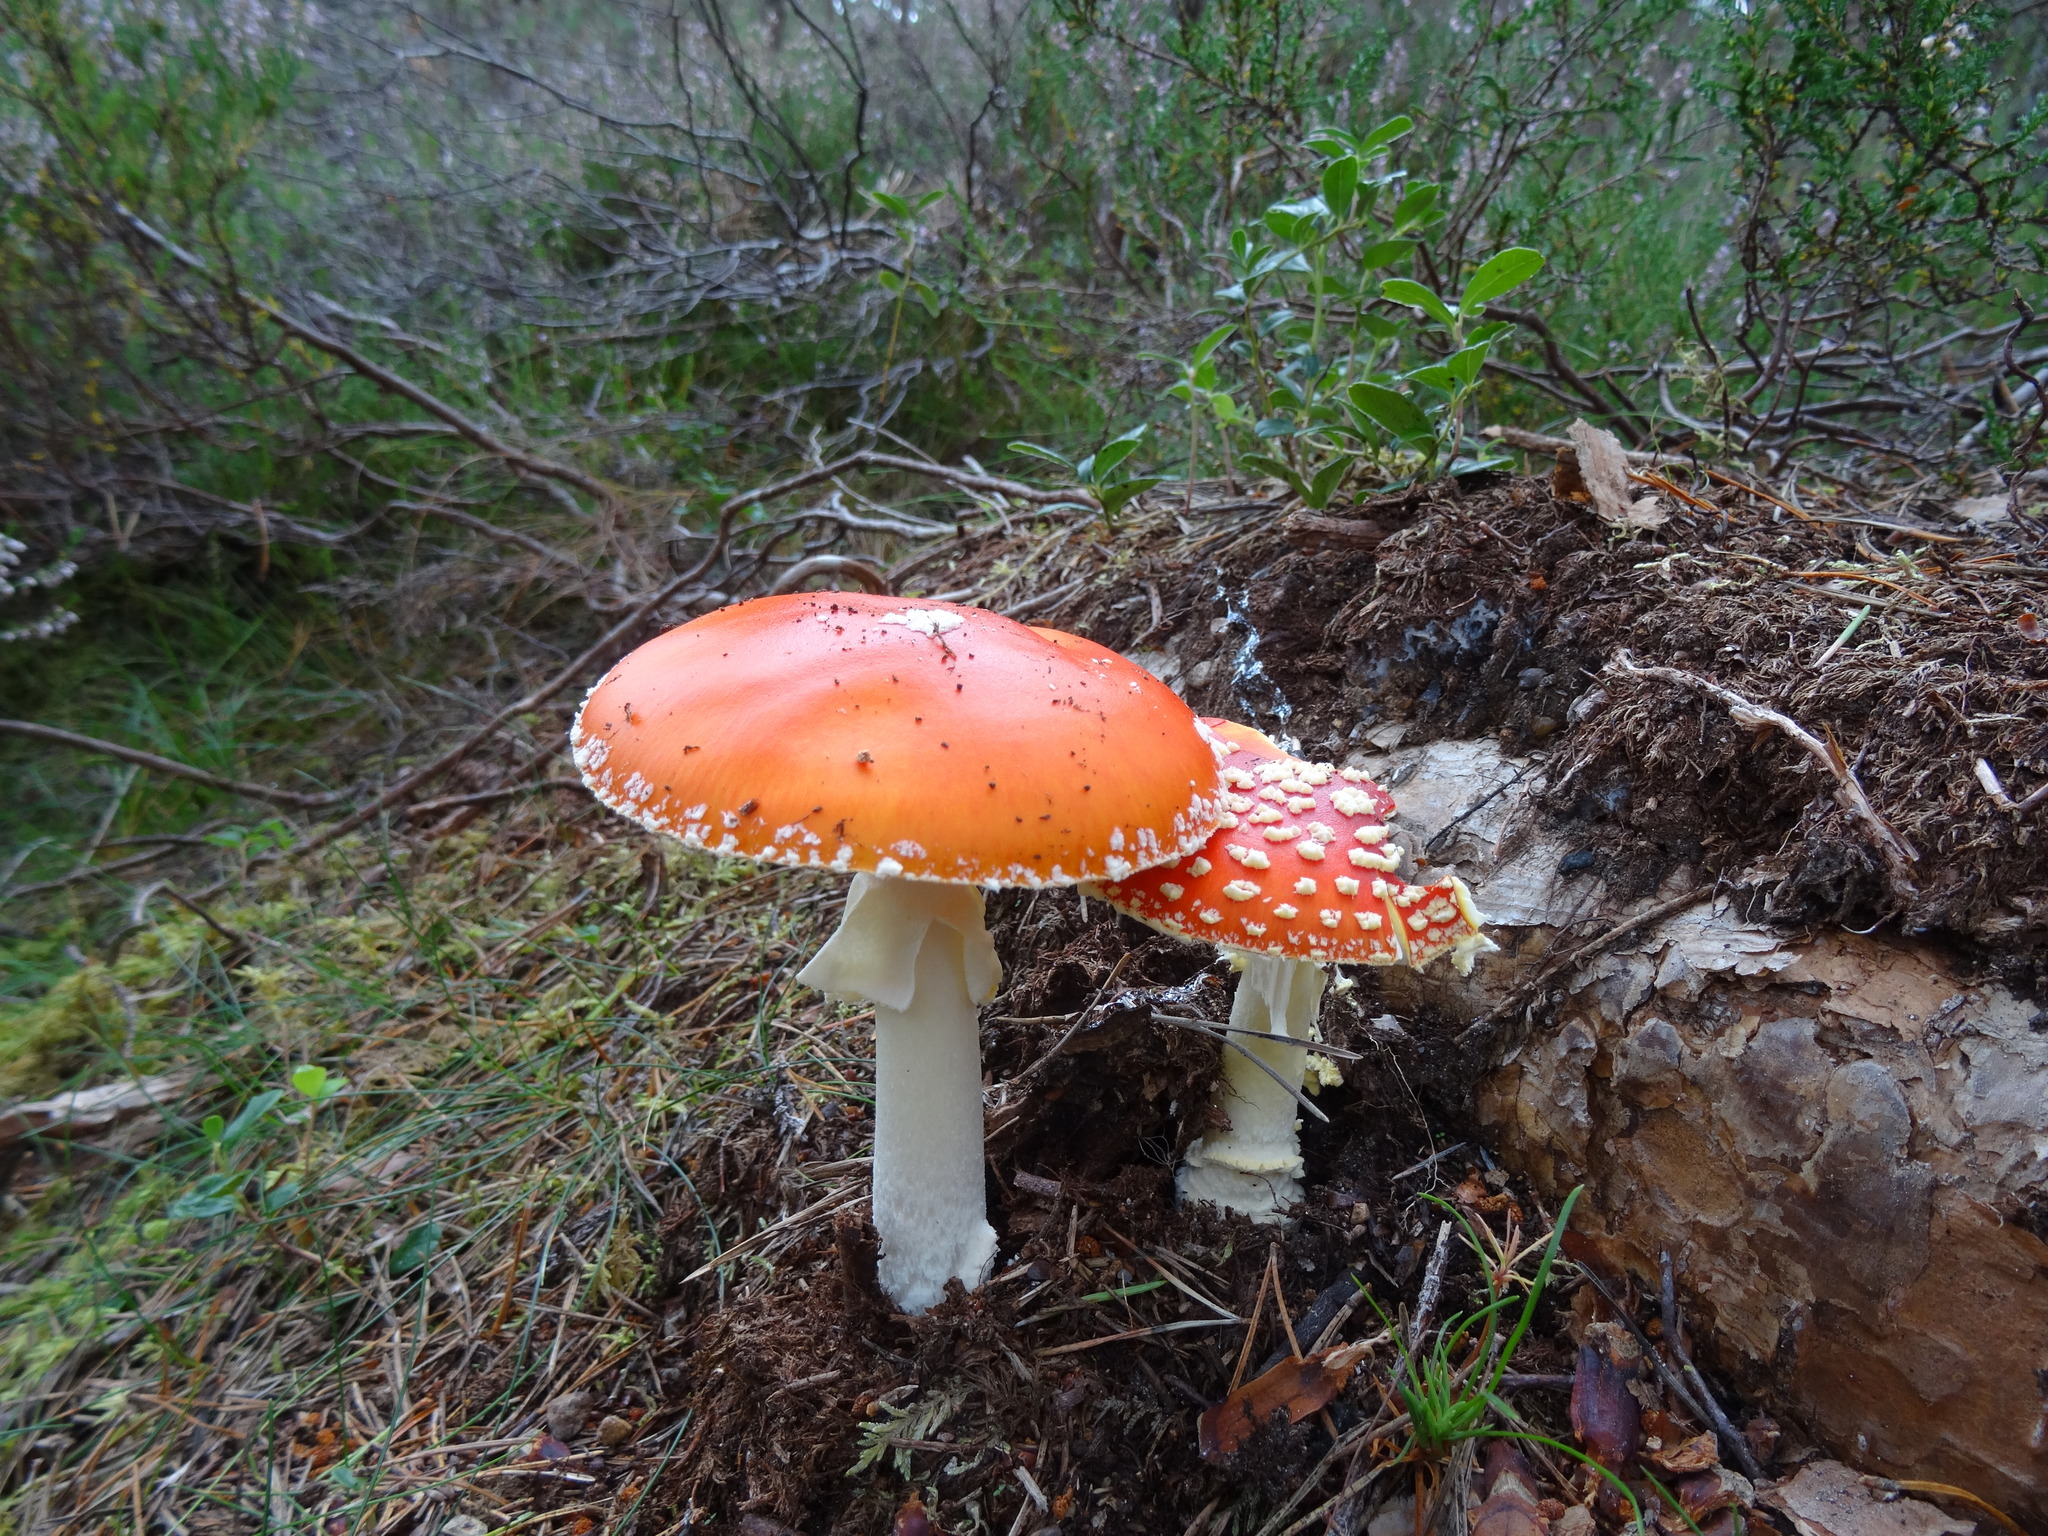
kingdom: Fungi
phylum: Basidiomycota
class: Agaricomycetes
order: Agaricales
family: Amanitaceae
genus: Amanita
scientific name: Amanita muscaria
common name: Fly agaric
